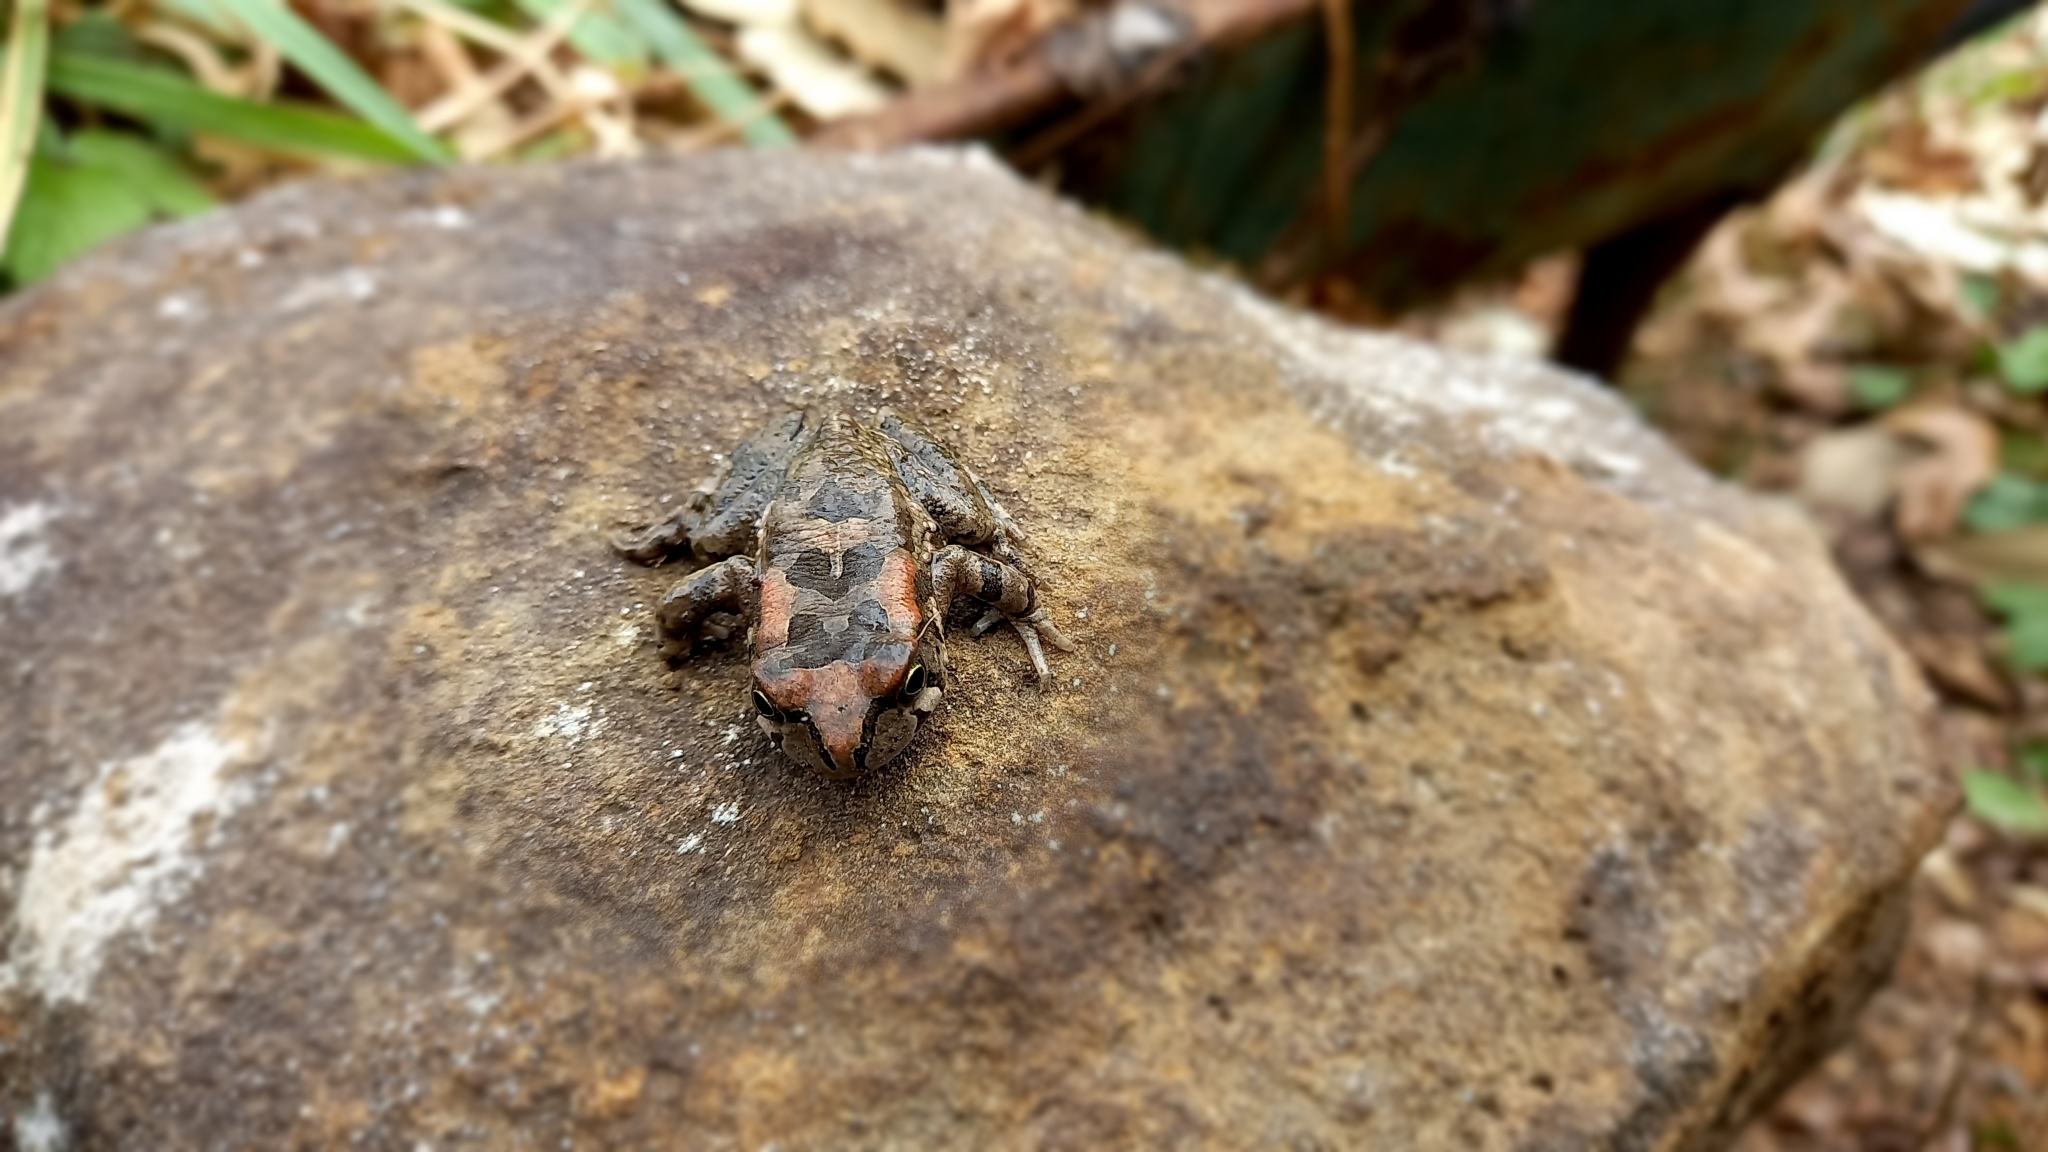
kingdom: Animalia
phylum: Chordata
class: Amphibia
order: Anura
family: Bufonidae
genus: Sclerophrys
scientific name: Sclerophrys capensis
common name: Ranger’s toad
